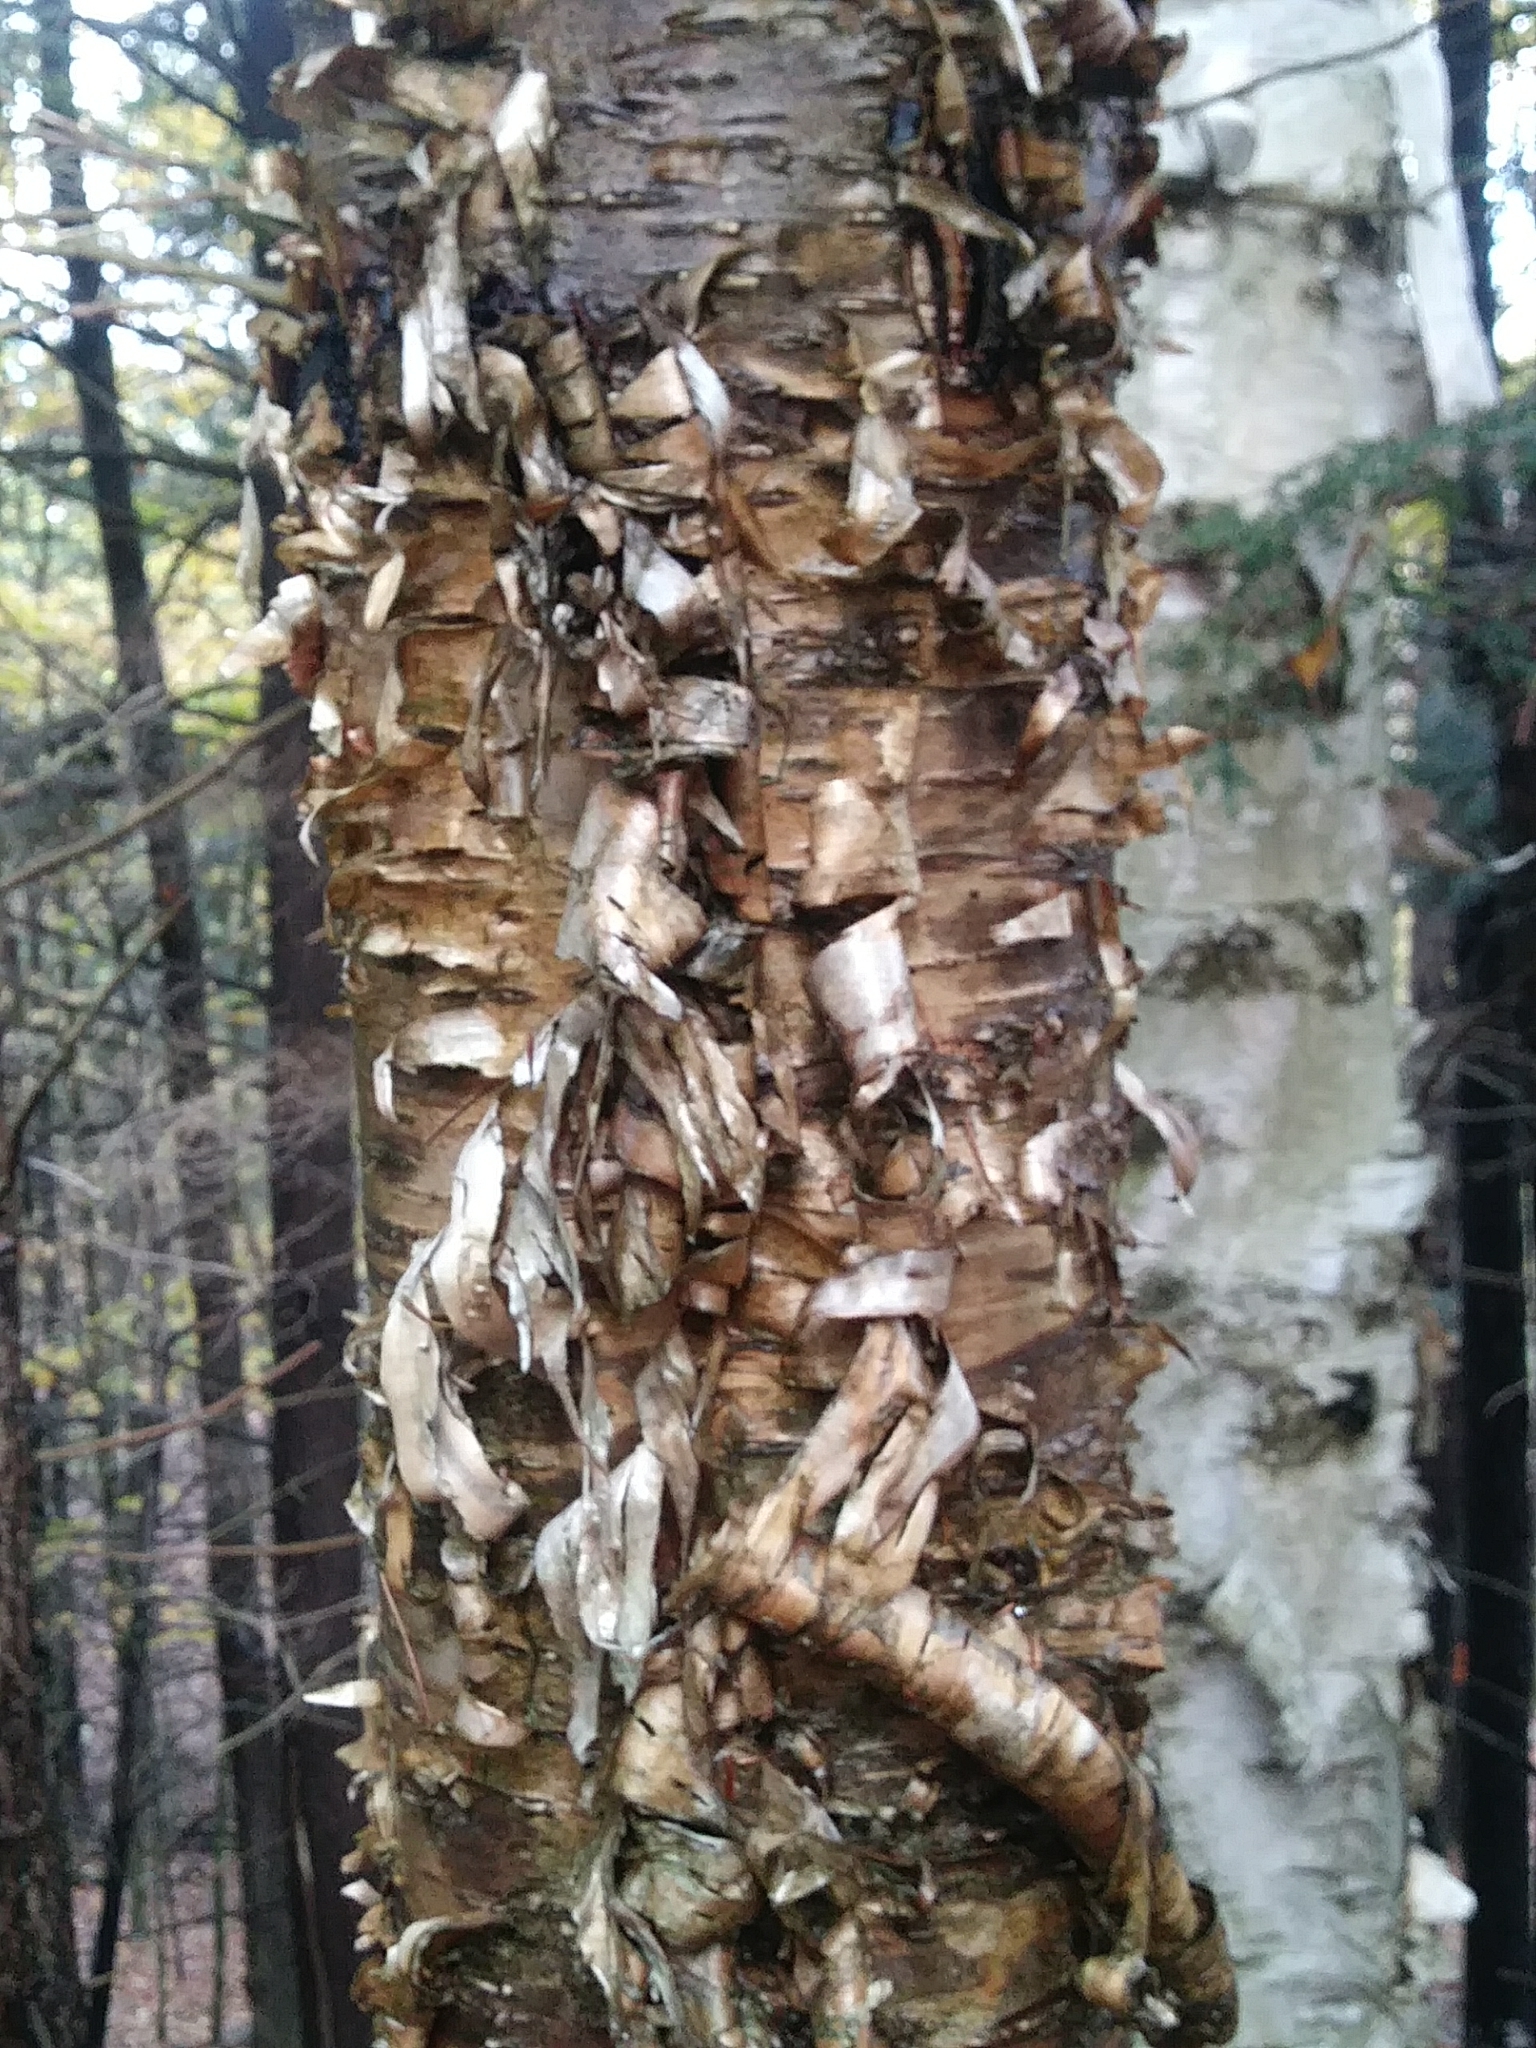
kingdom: Plantae
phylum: Tracheophyta
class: Magnoliopsida
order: Fagales
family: Betulaceae
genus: Betula
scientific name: Betula alleghaniensis
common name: Yellow birch
